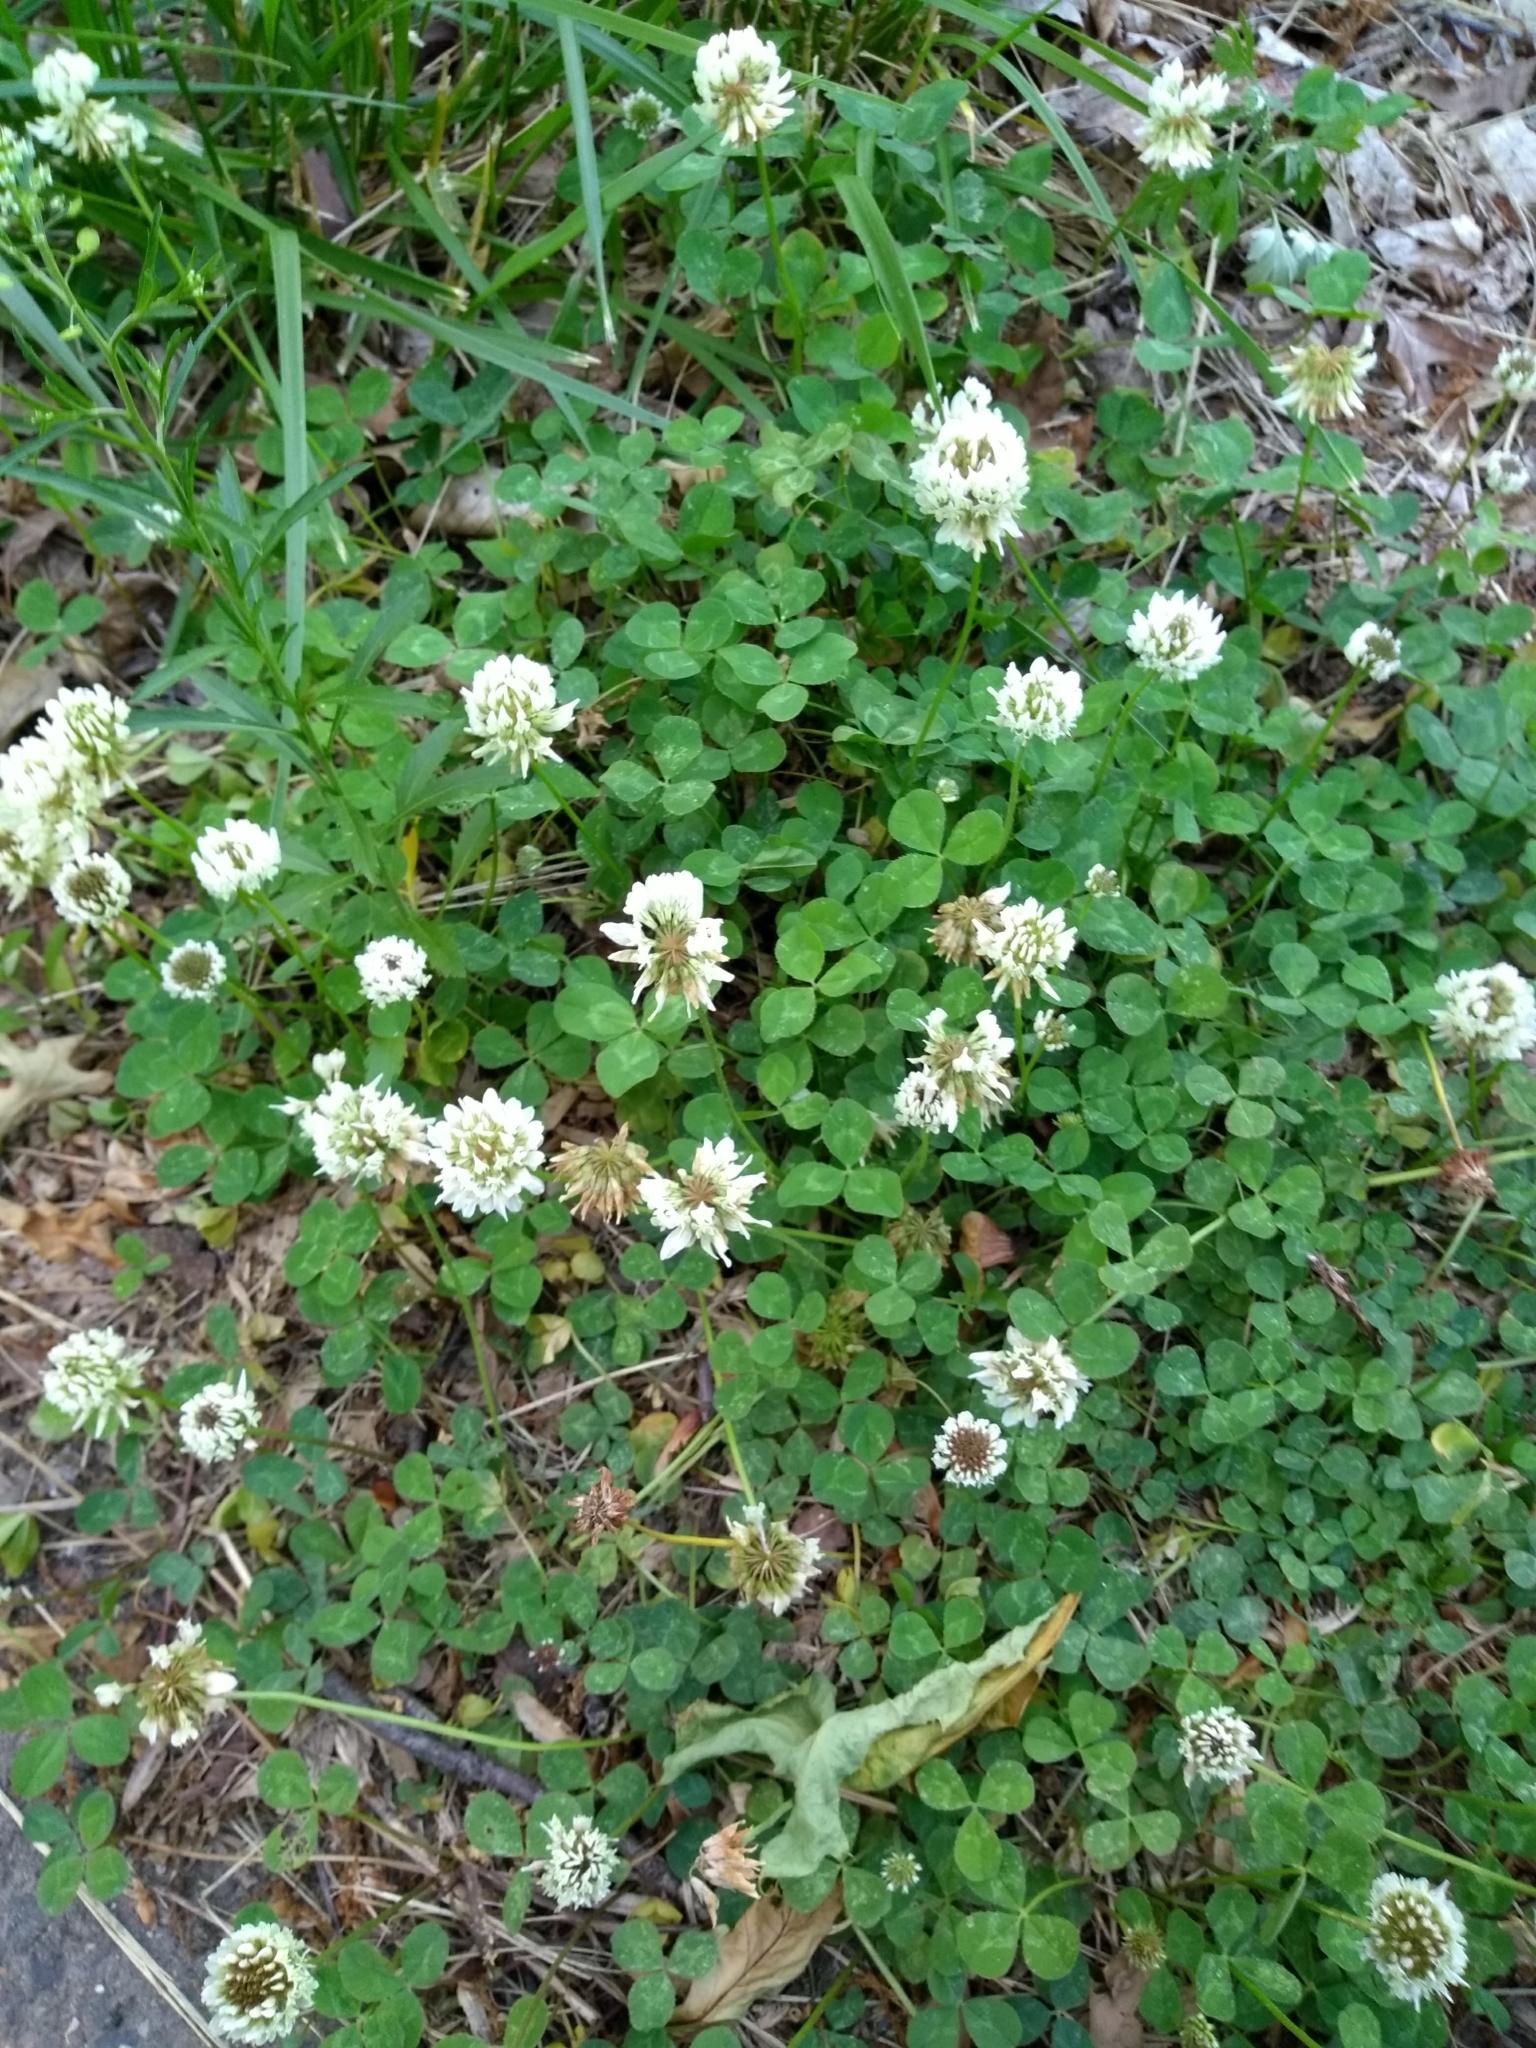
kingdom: Plantae
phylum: Tracheophyta
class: Magnoliopsida
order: Fabales
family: Fabaceae
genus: Trifolium
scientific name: Trifolium repens
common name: White clover
